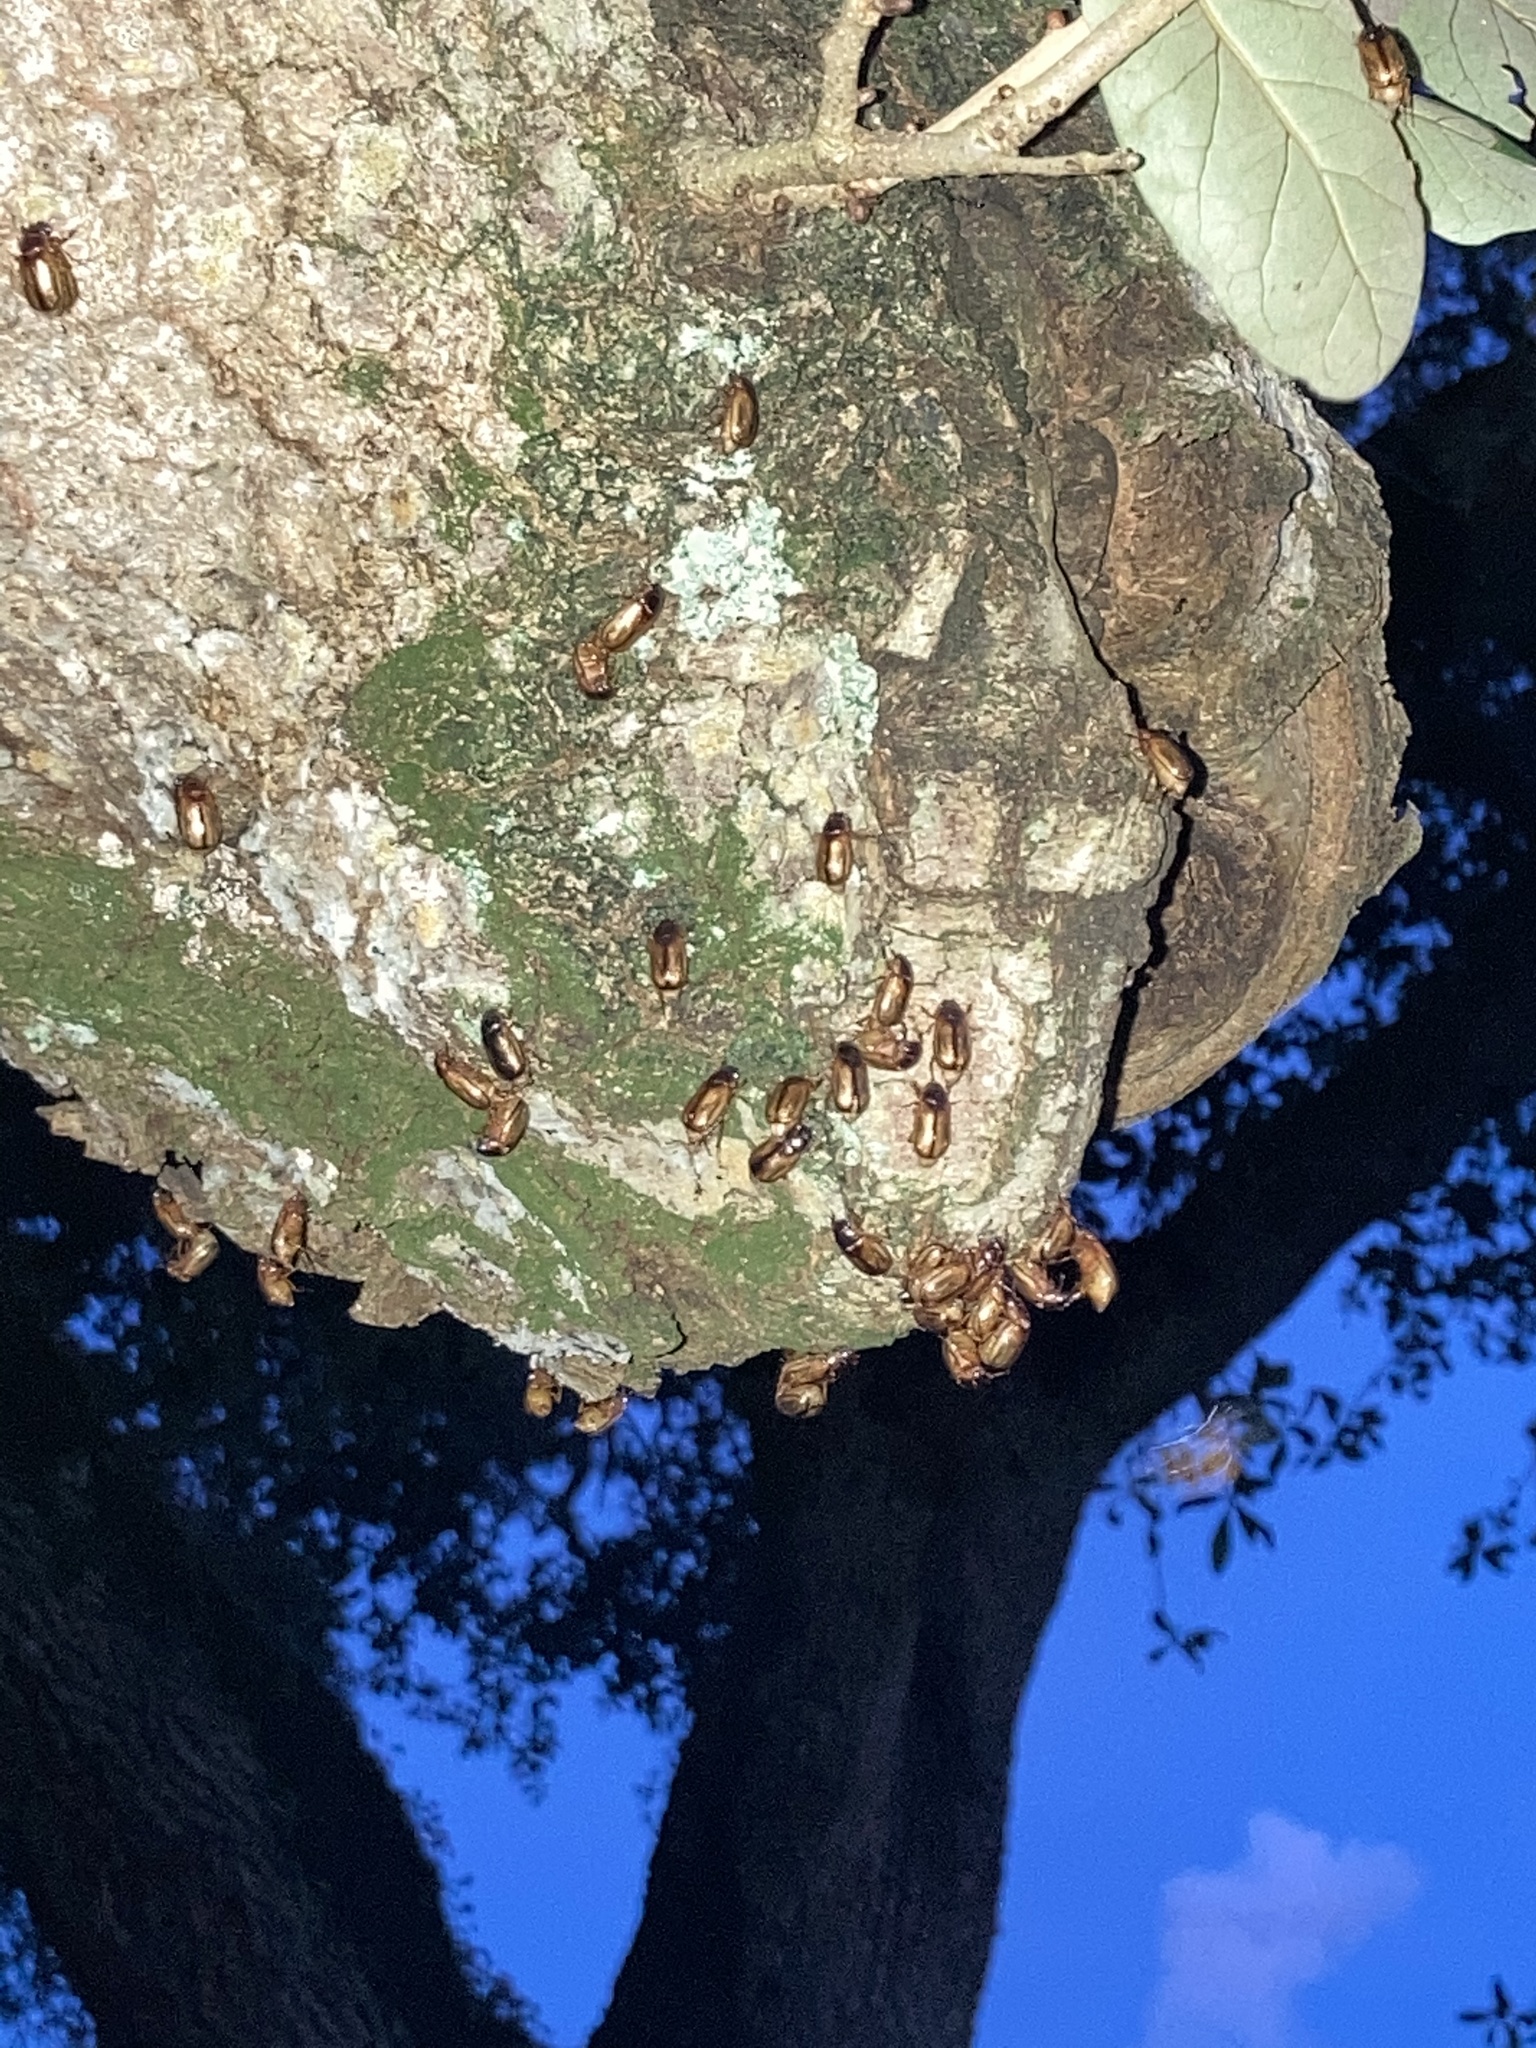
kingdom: Animalia
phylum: Arthropoda
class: Insecta
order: Coleoptera
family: Scarabaeidae
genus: Phyllophaga
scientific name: Phyllophaga bruneri
